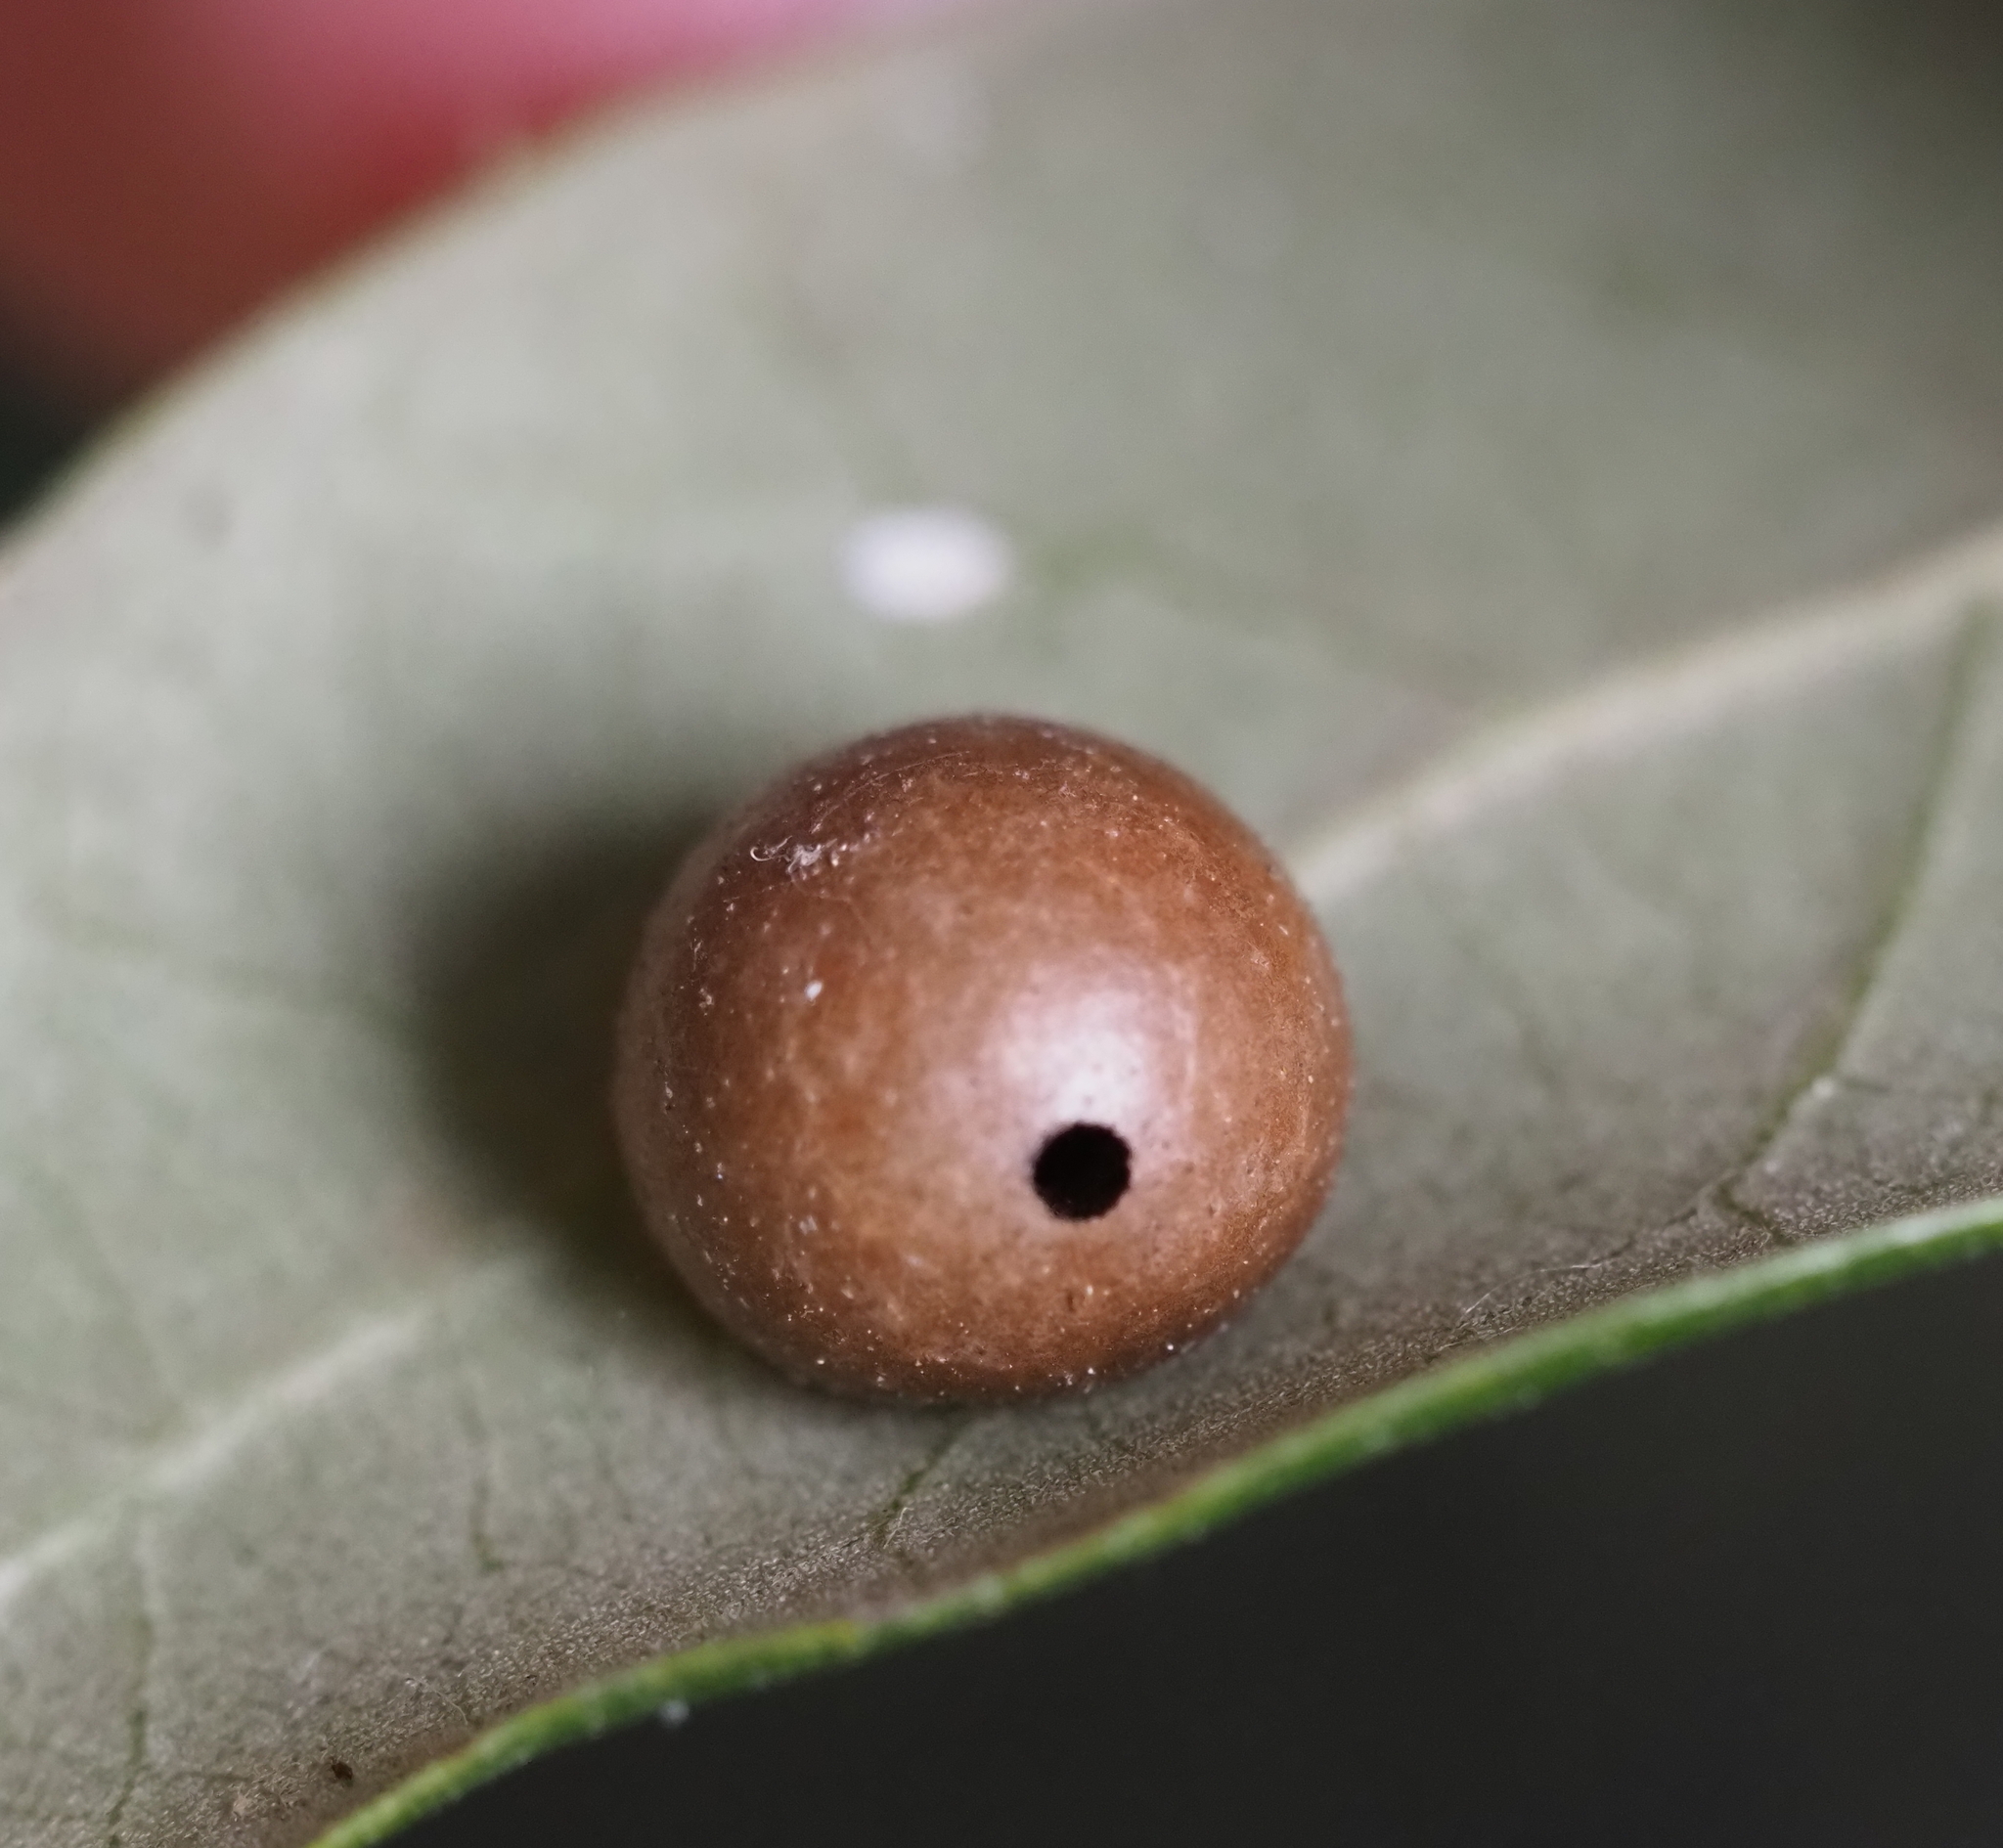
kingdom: Animalia
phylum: Arthropoda
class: Insecta
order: Hymenoptera
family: Cynipidae
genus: Belonocnema
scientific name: Belonocnema kinseyi
